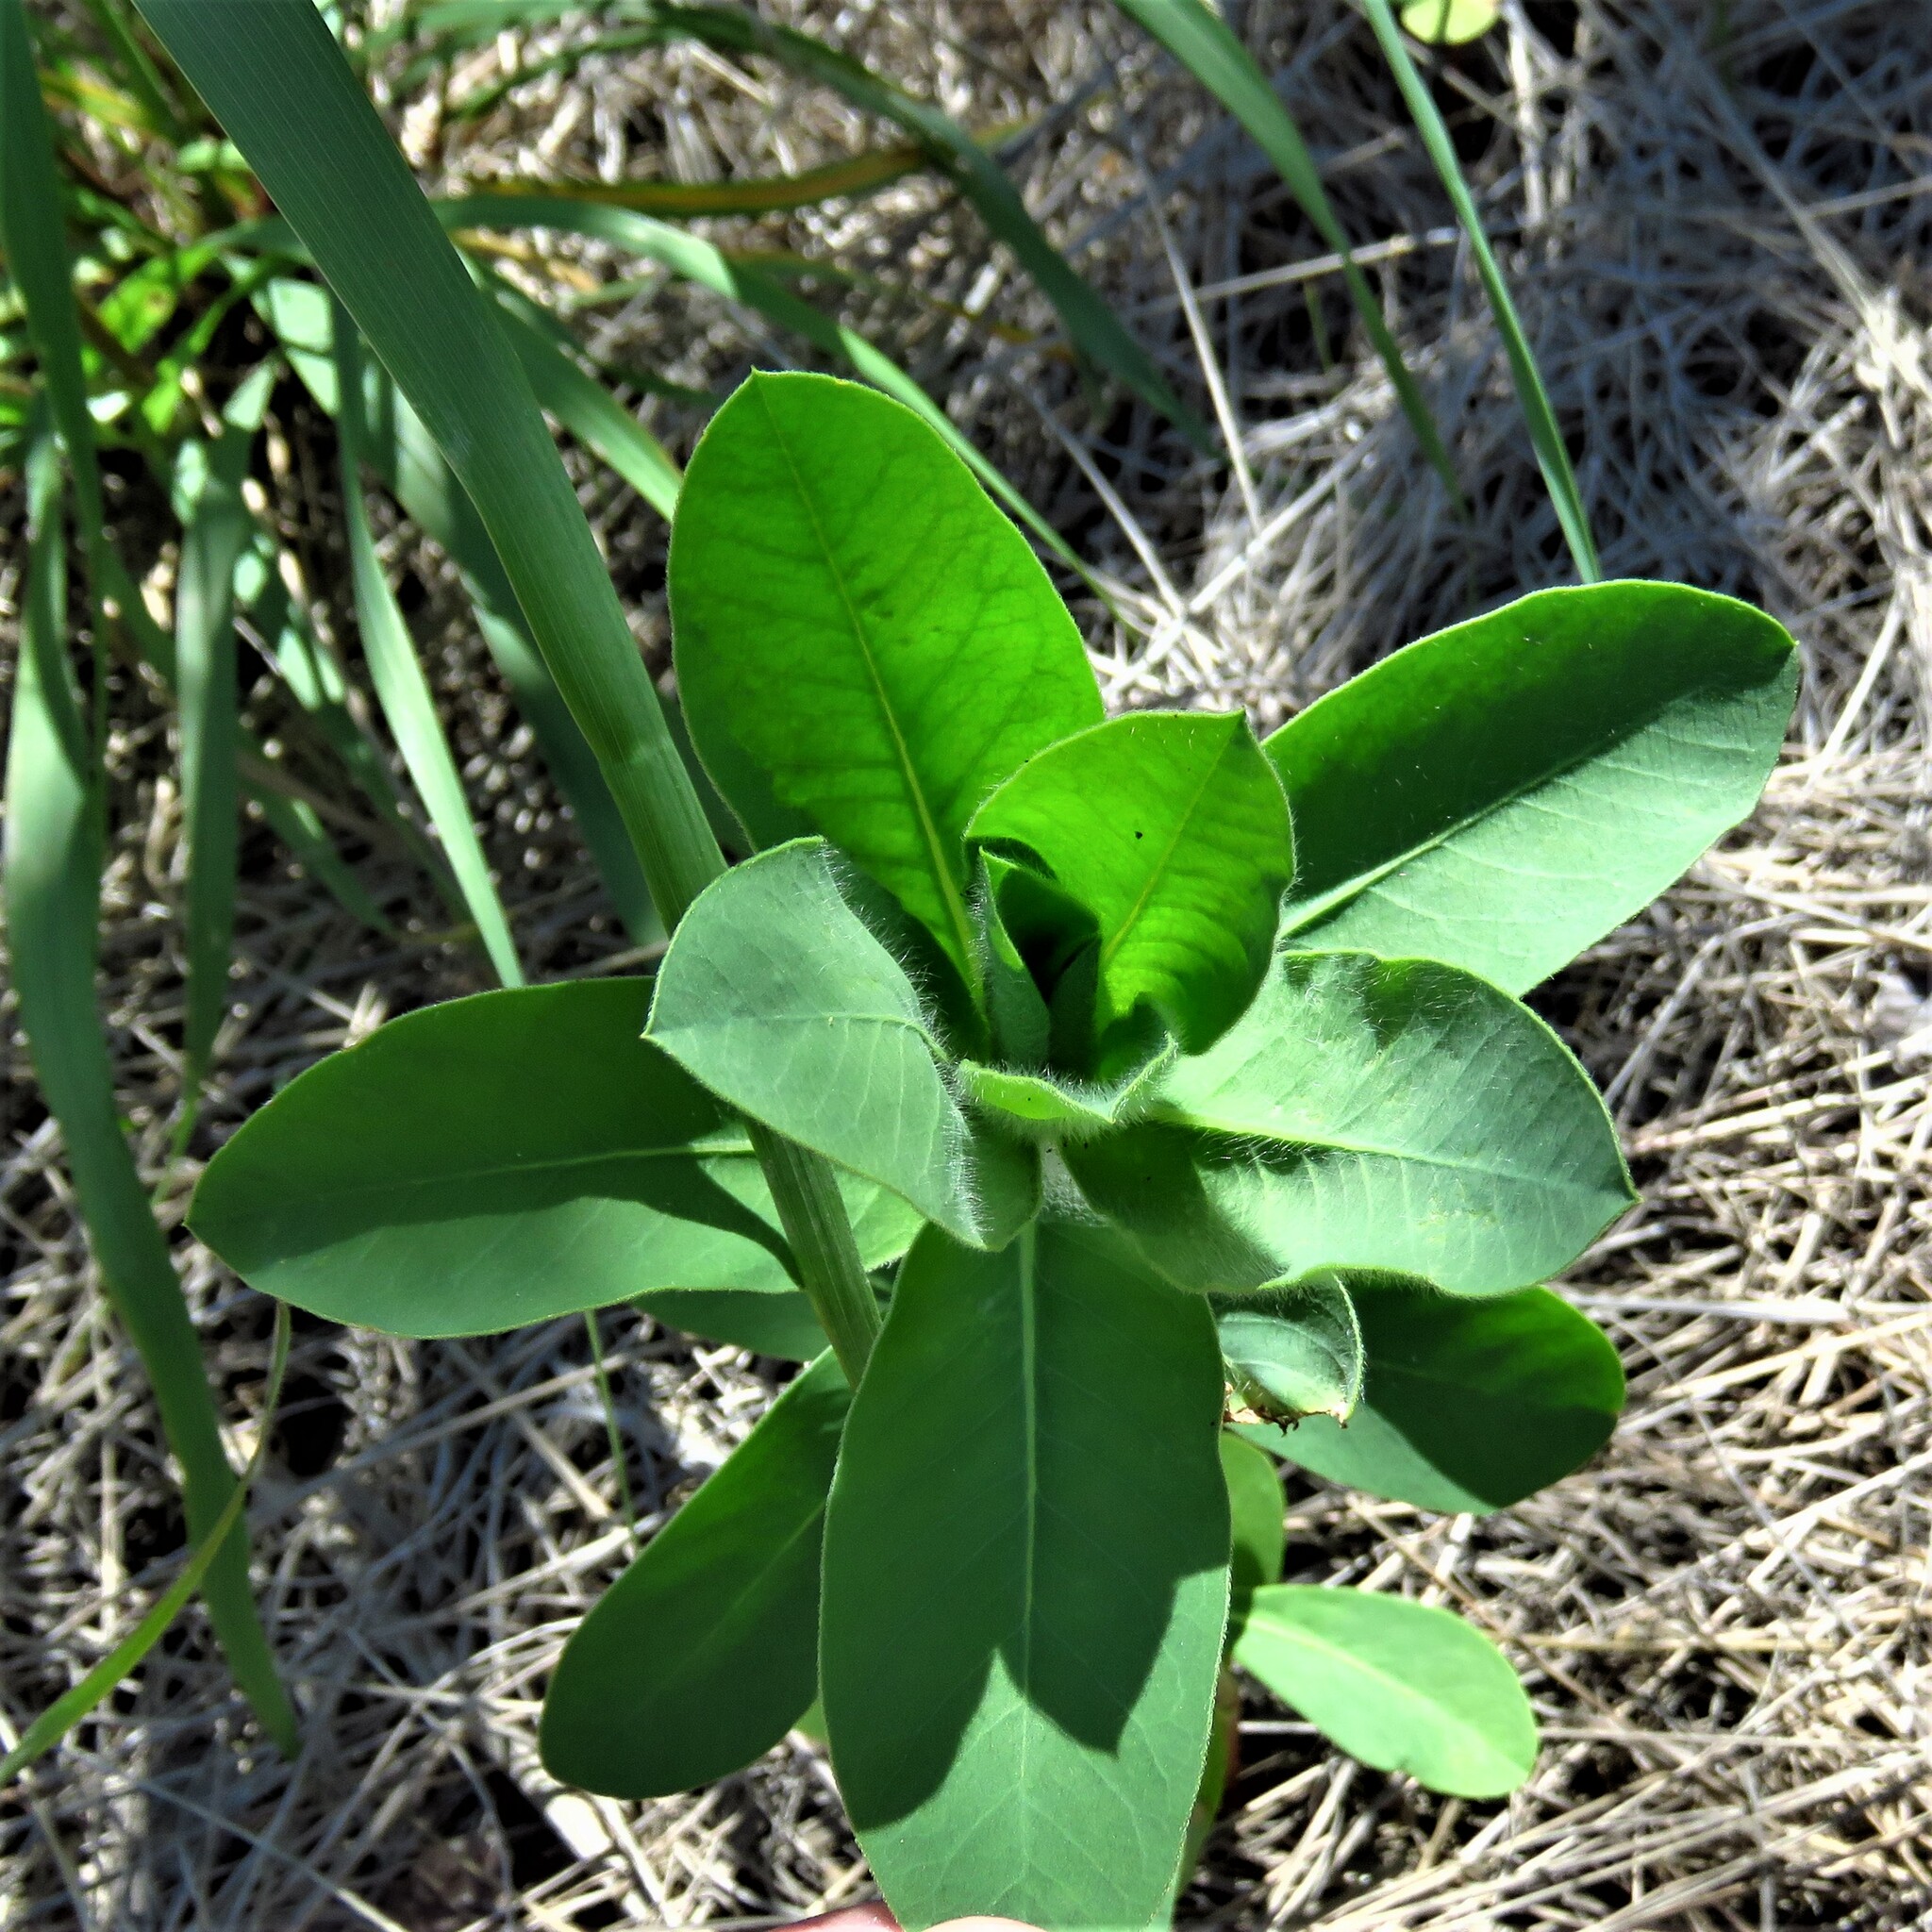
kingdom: Plantae
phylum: Tracheophyta
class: Magnoliopsida
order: Malpighiales
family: Euphorbiaceae
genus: Euphorbia
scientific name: Euphorbia bicolor
